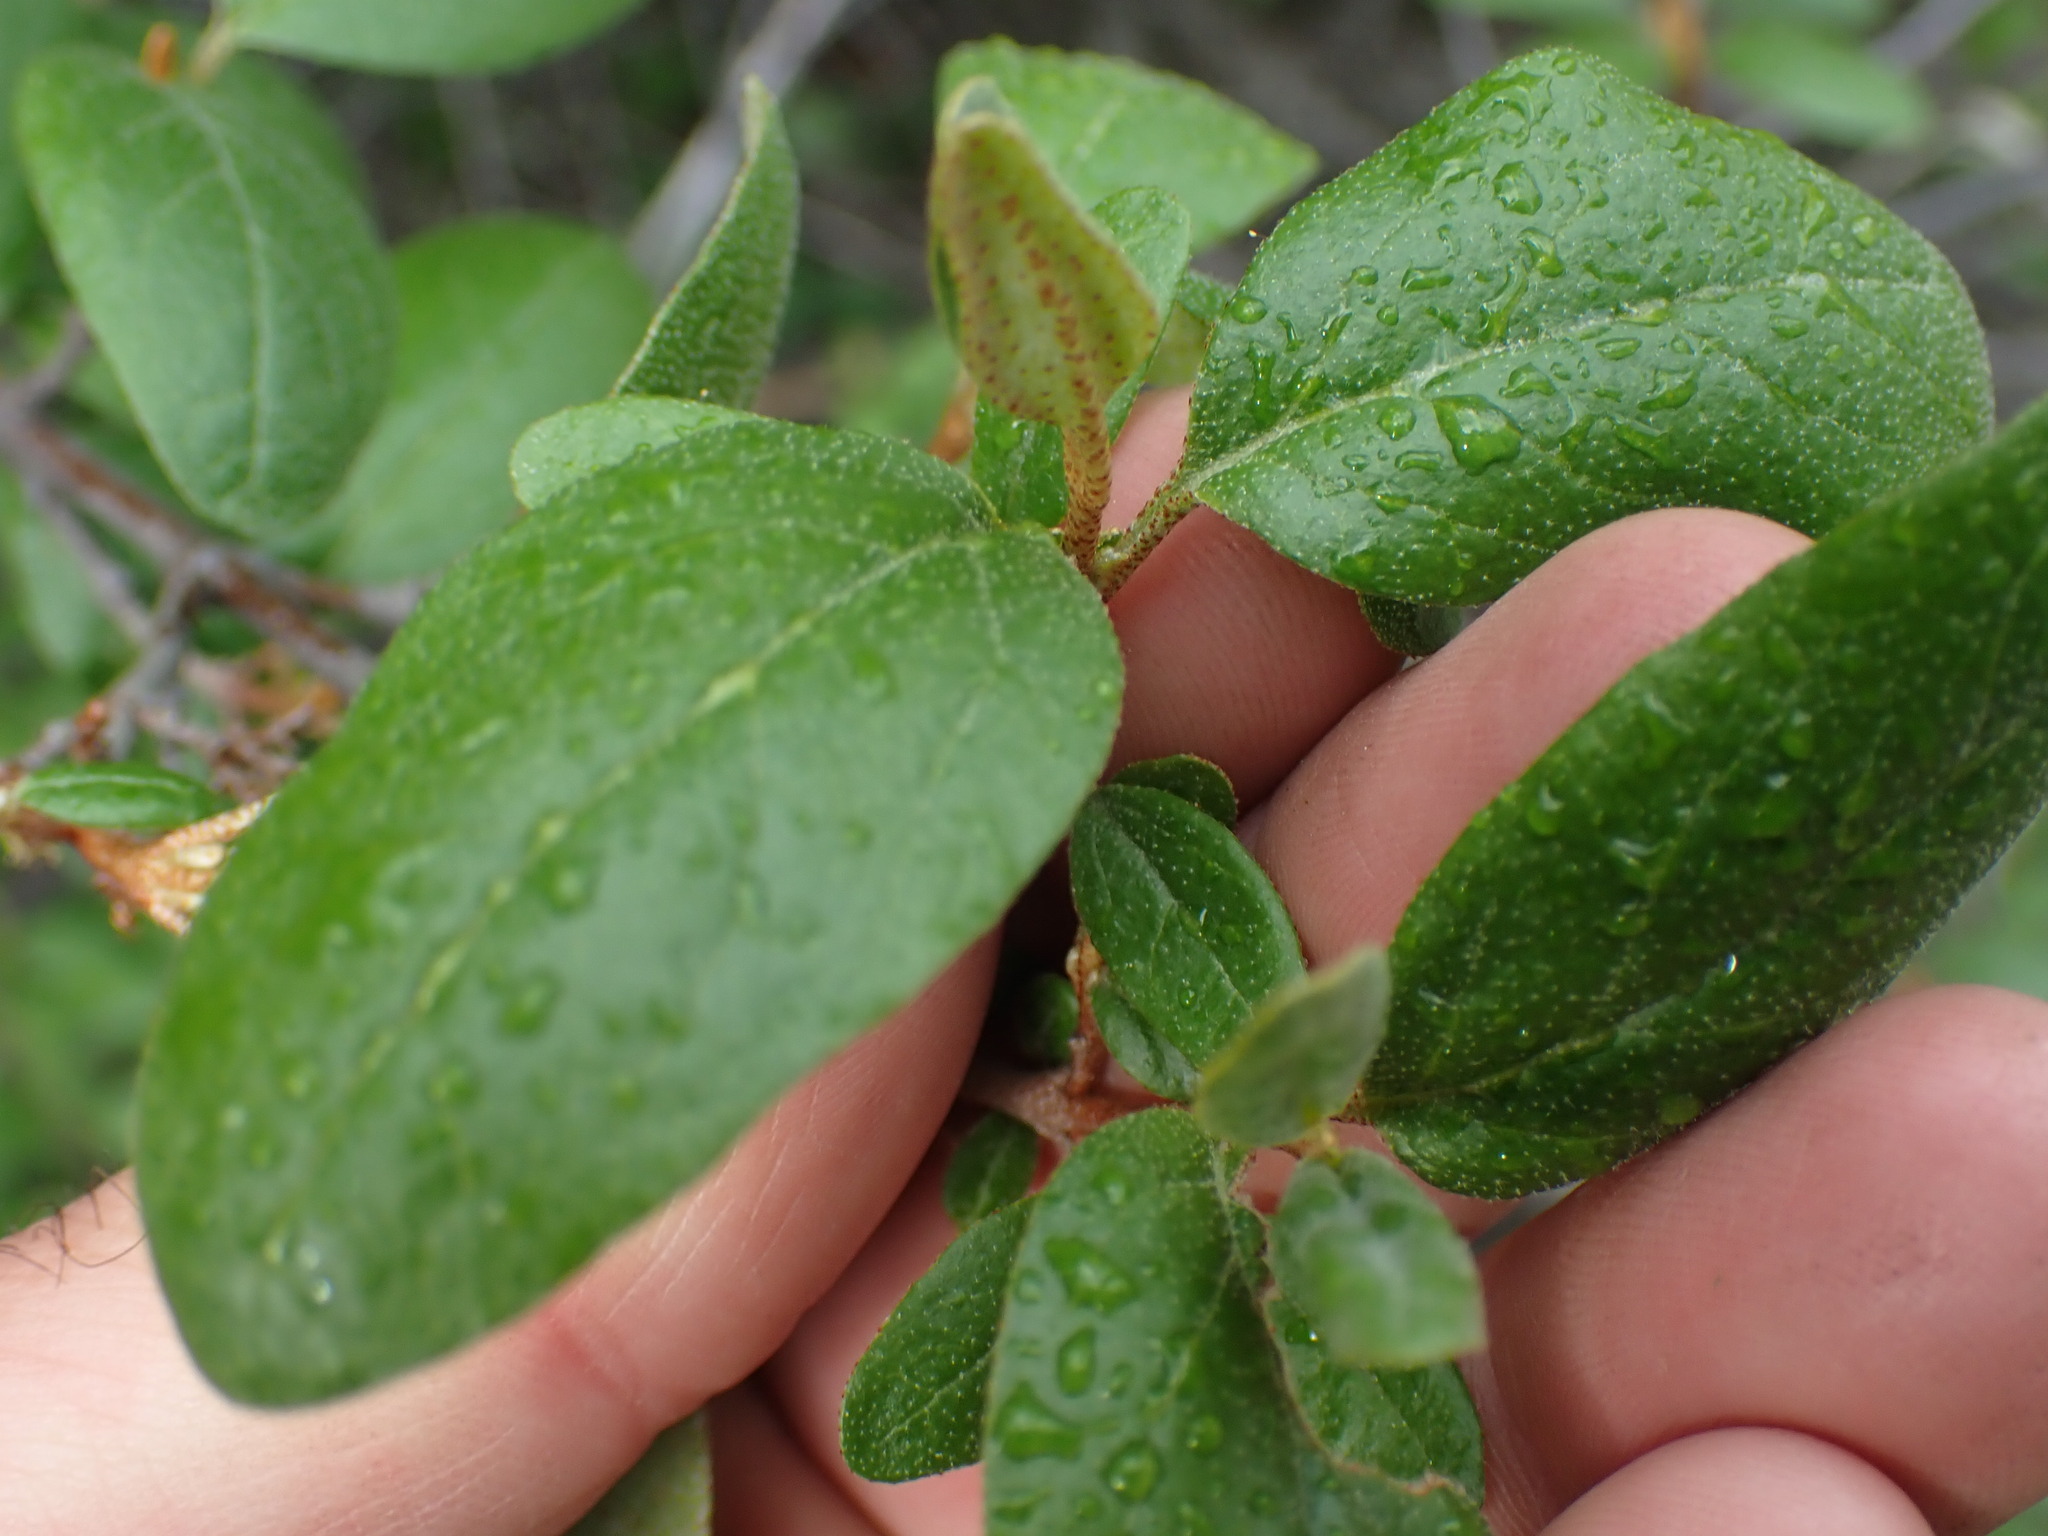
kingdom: Plantae
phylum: Tracheophyta
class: Magnoliopsida
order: Rosales
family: Elaeagnaceae
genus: Shepherdia
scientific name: Shepherdia canadensis
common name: Soapberry
